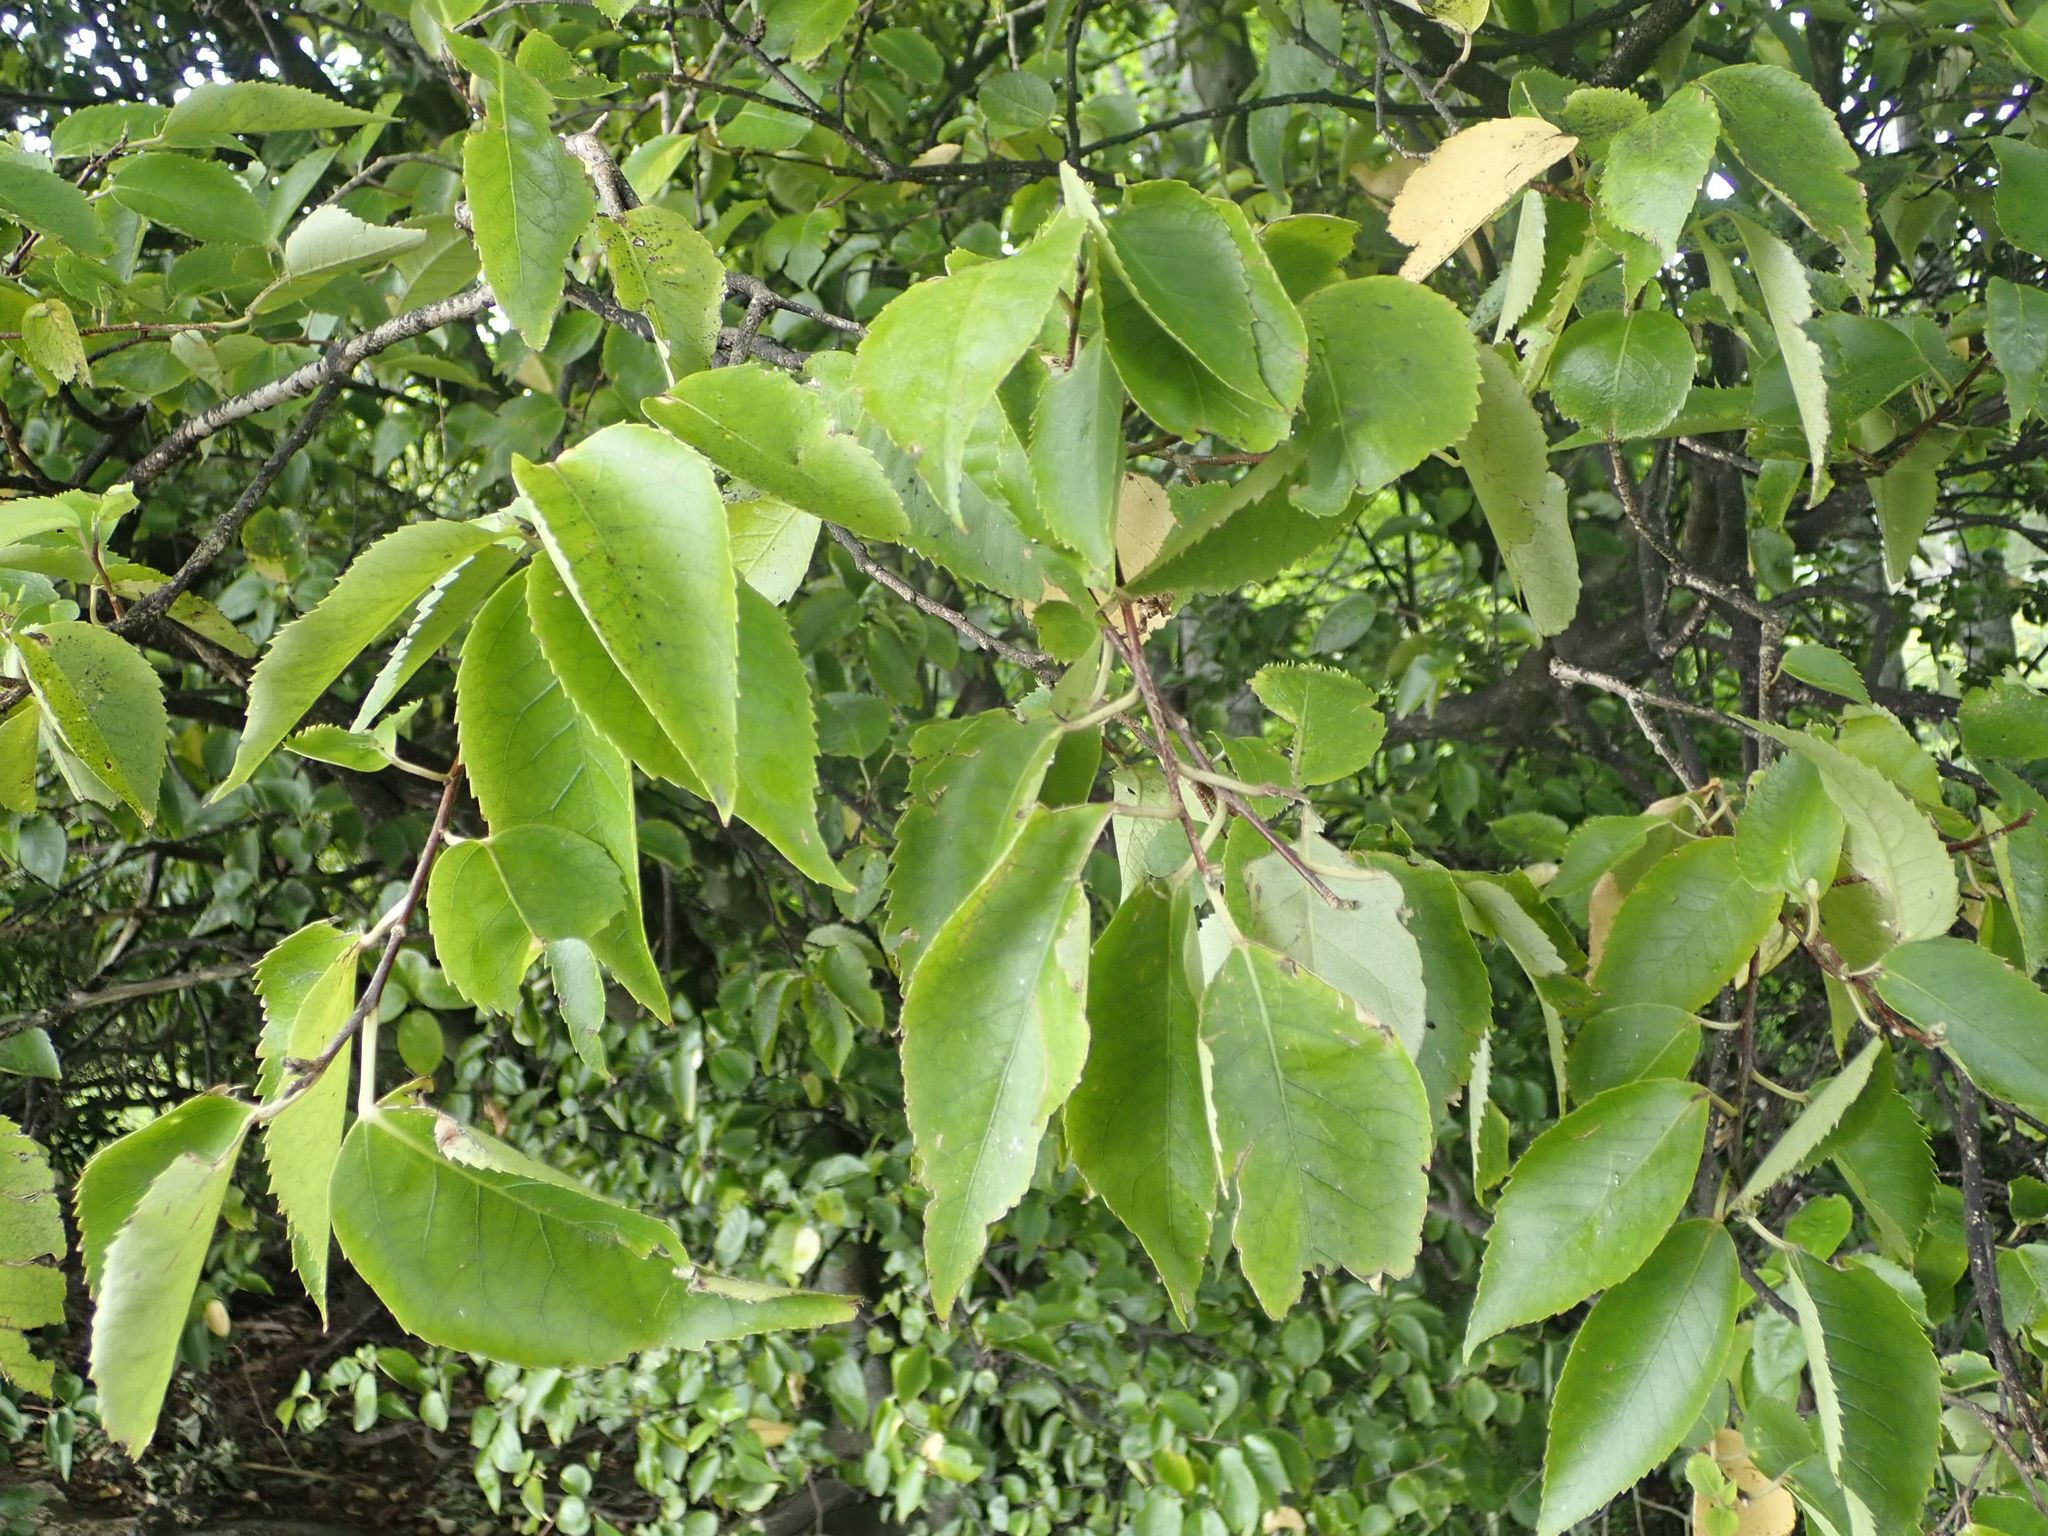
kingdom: Plantae
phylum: Tracheophyta
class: Magnoliopsida
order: Malvales
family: Malvaceae
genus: Hoheria
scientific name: Hoheria populnea
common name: Lacebark
